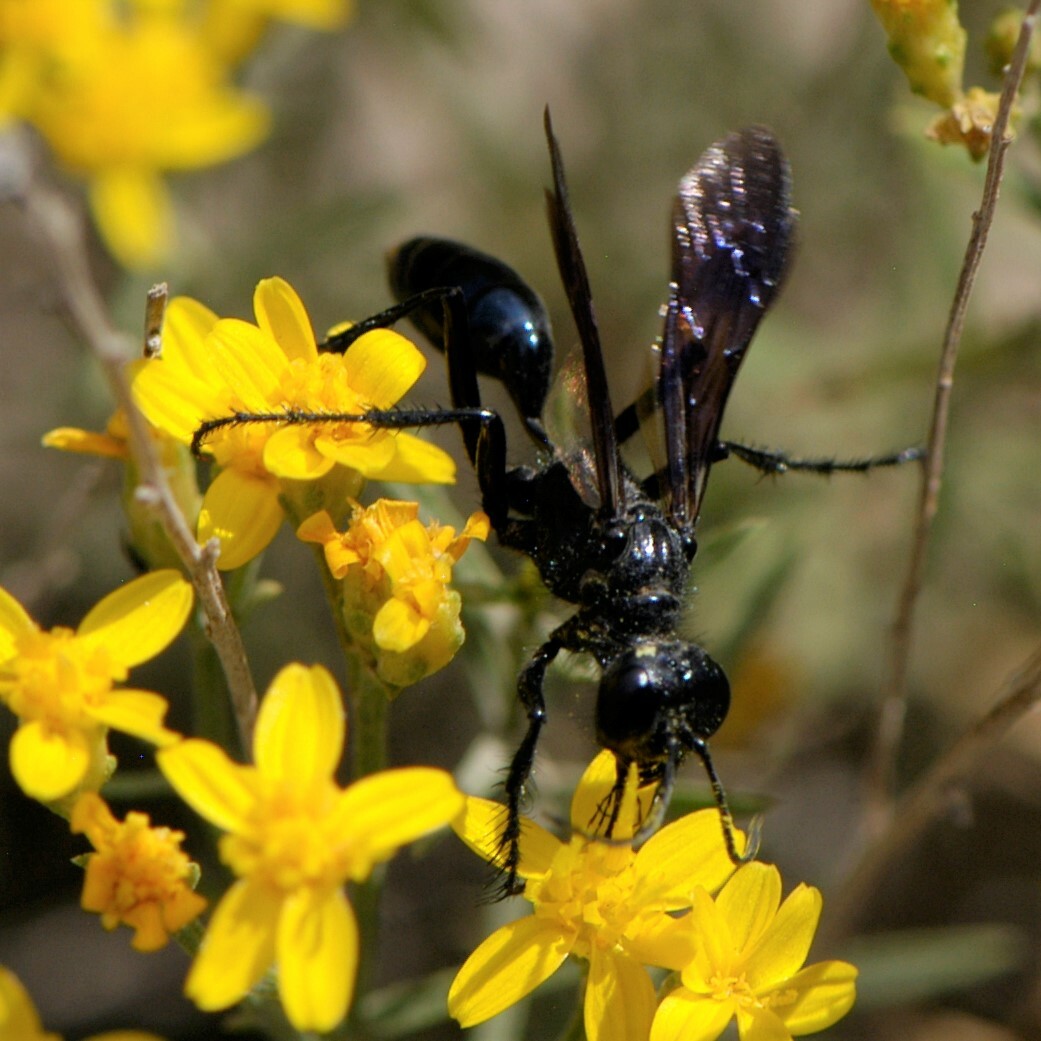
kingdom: Animalia
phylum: Arthropoda
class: Insecta
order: Hymenoptera
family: Sphecidae
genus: Podalonia
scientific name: Podalonia
